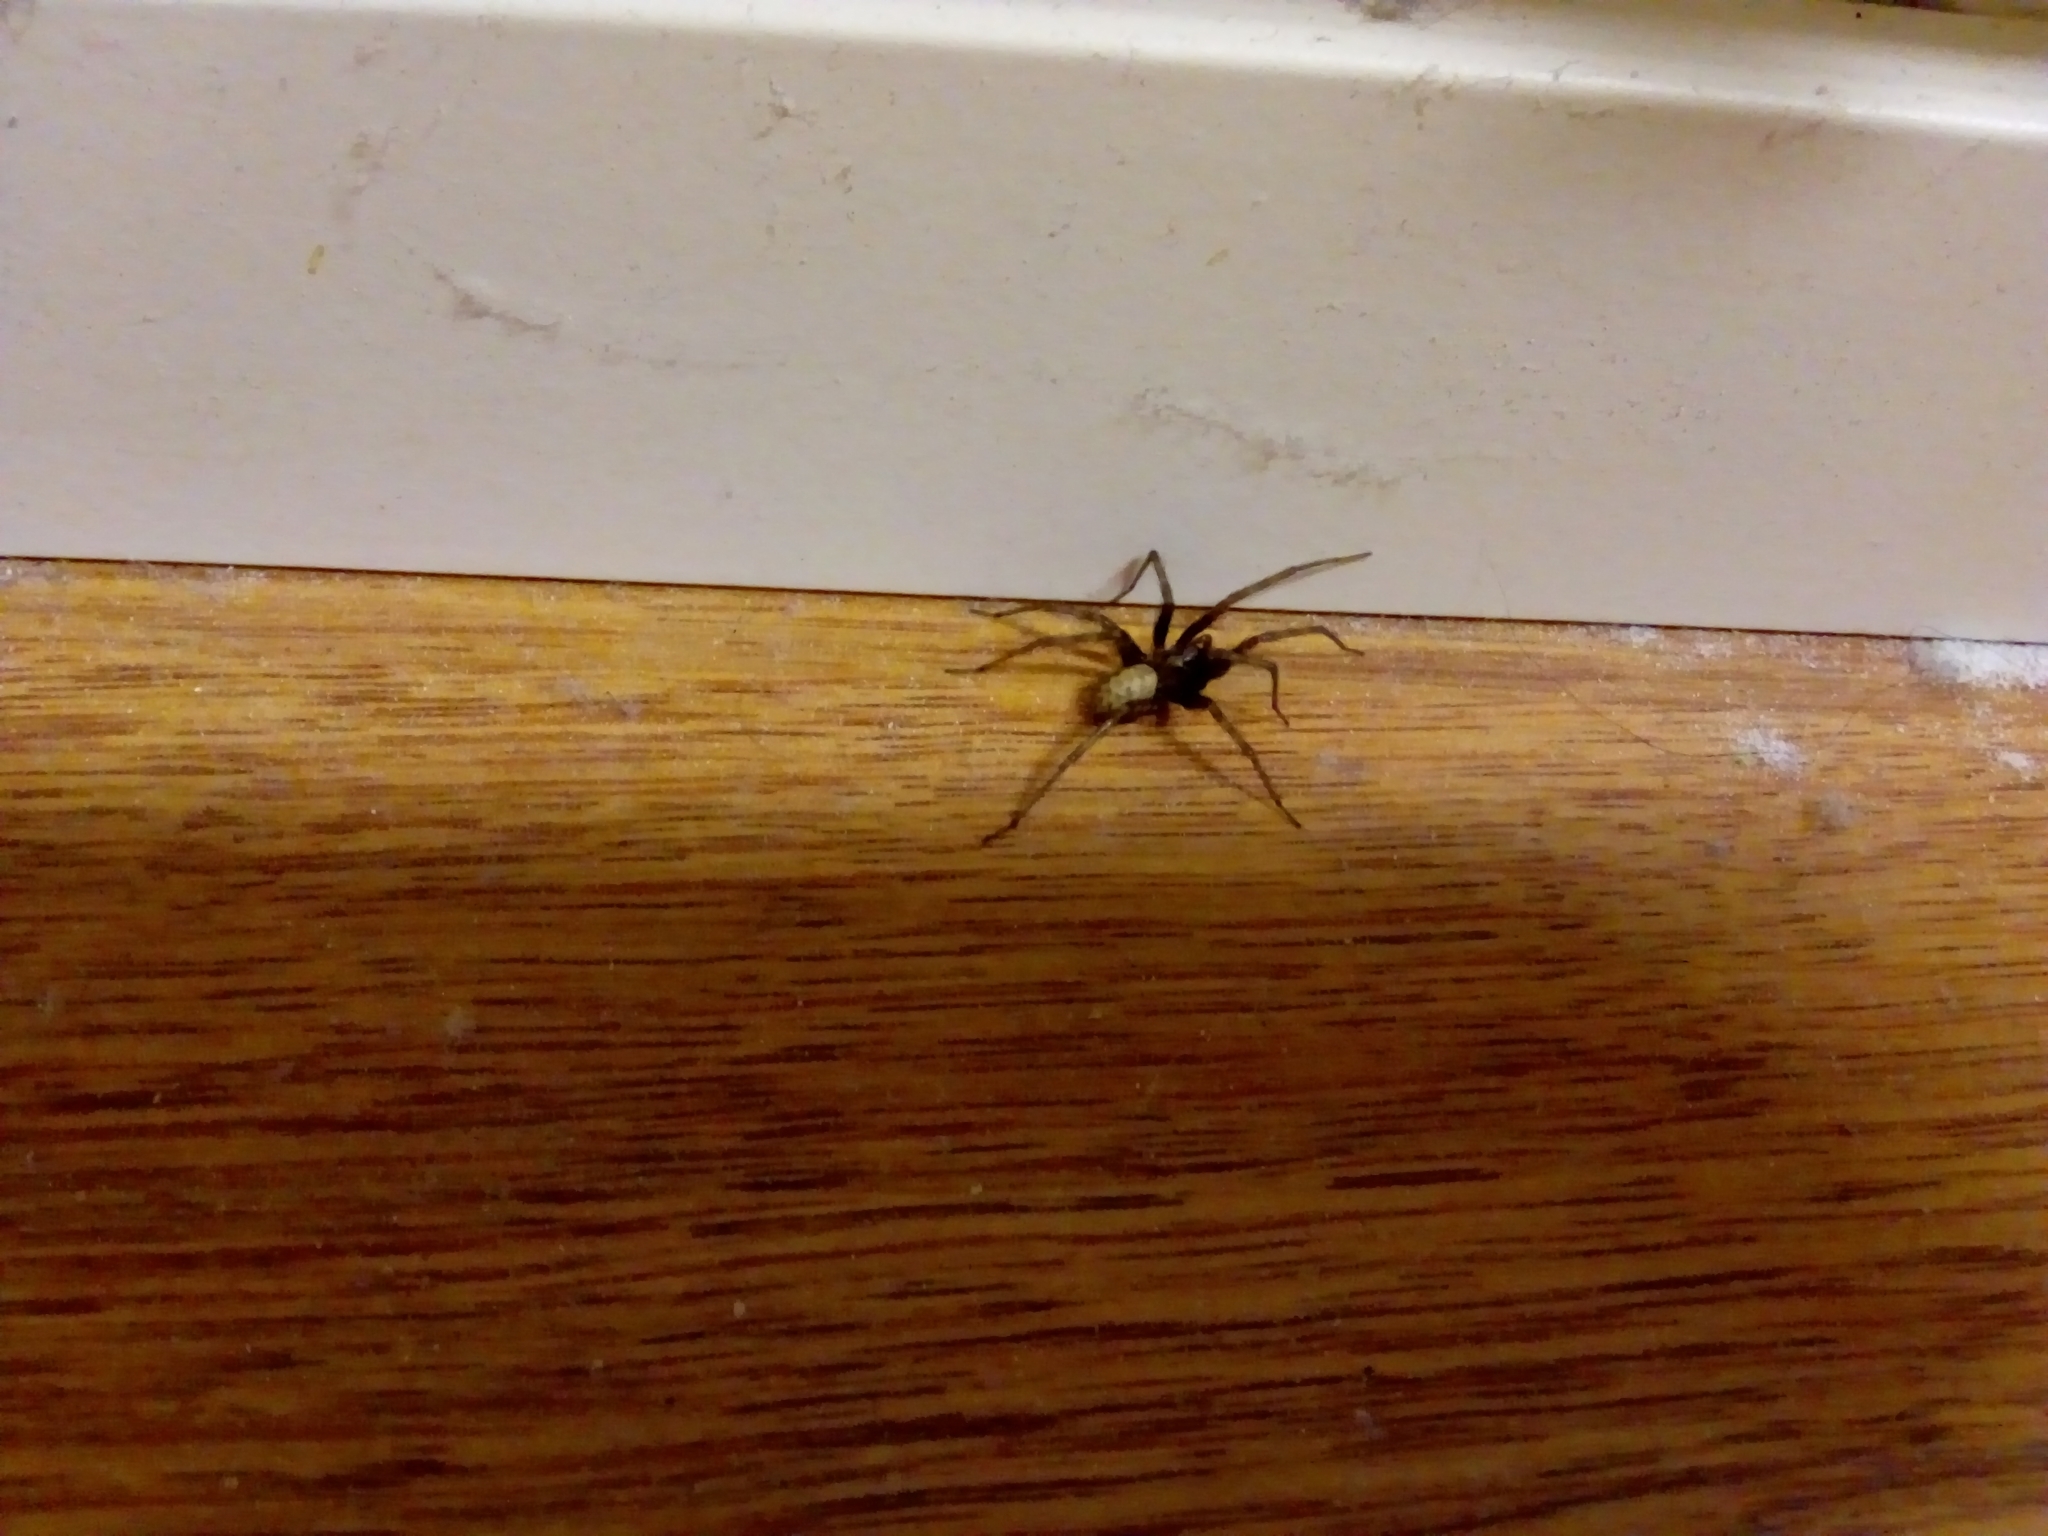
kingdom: Animalia
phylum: Arthropoda
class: Arachnida
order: Araneae
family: Agelenidae
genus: Tegenaria
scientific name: Tegenaria domestica
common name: Barn funnel weaver
